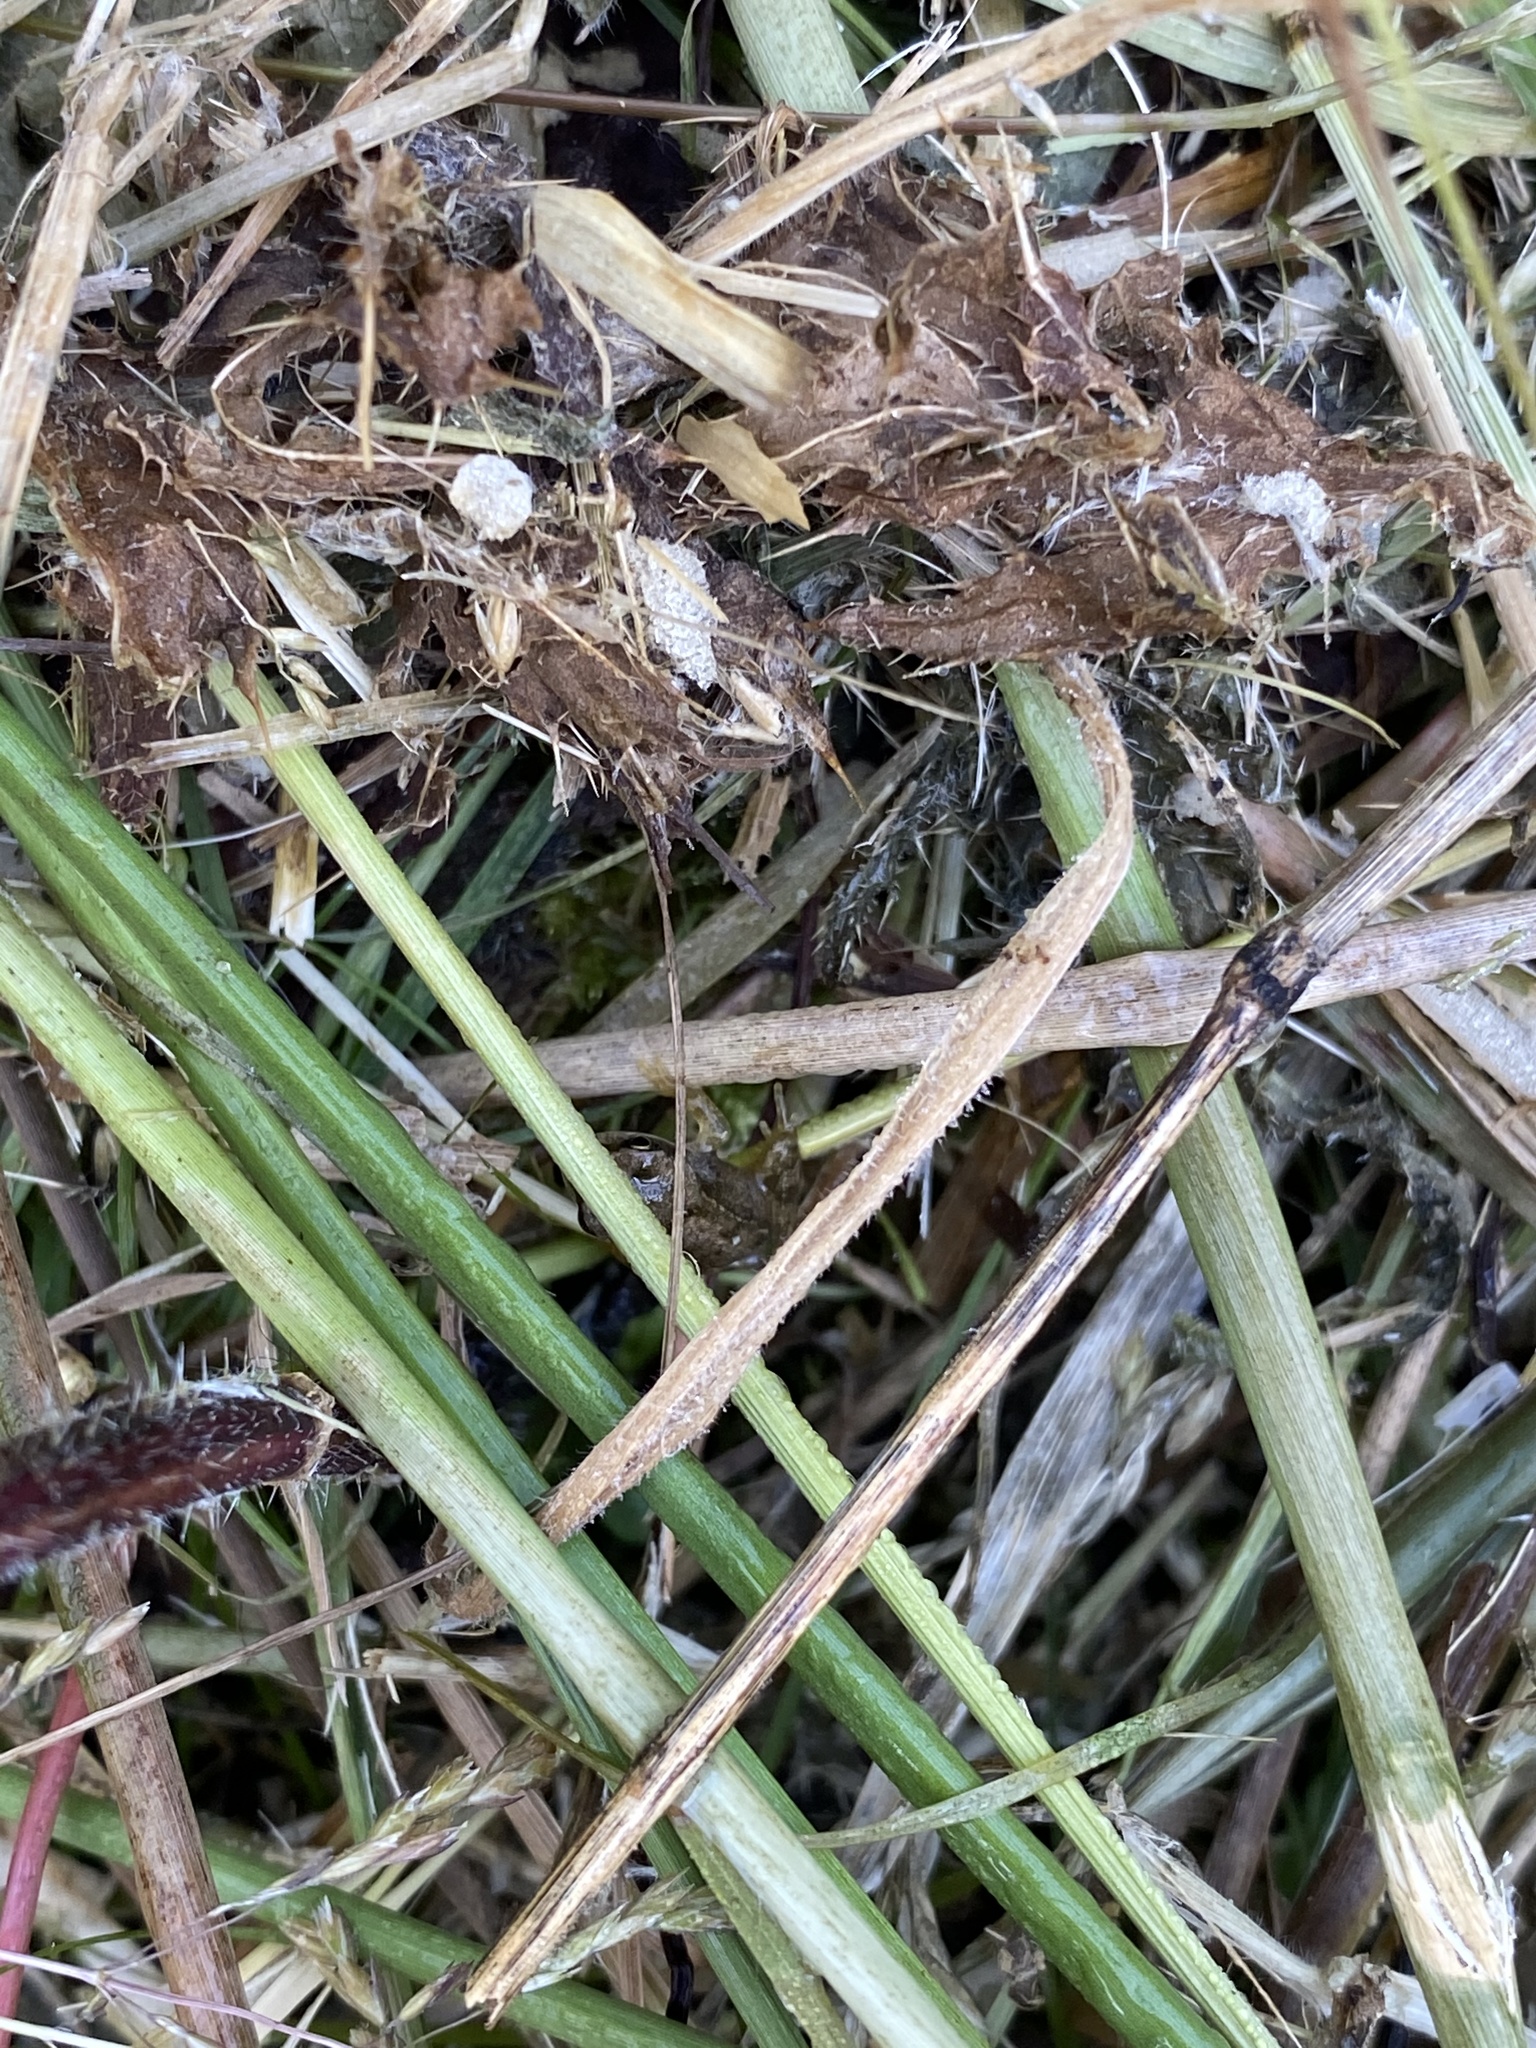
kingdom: Animalia
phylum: Chordata
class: Amphibia
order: Anura
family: Ranidae
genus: Rana
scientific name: Rana temporaria
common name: Common frog
